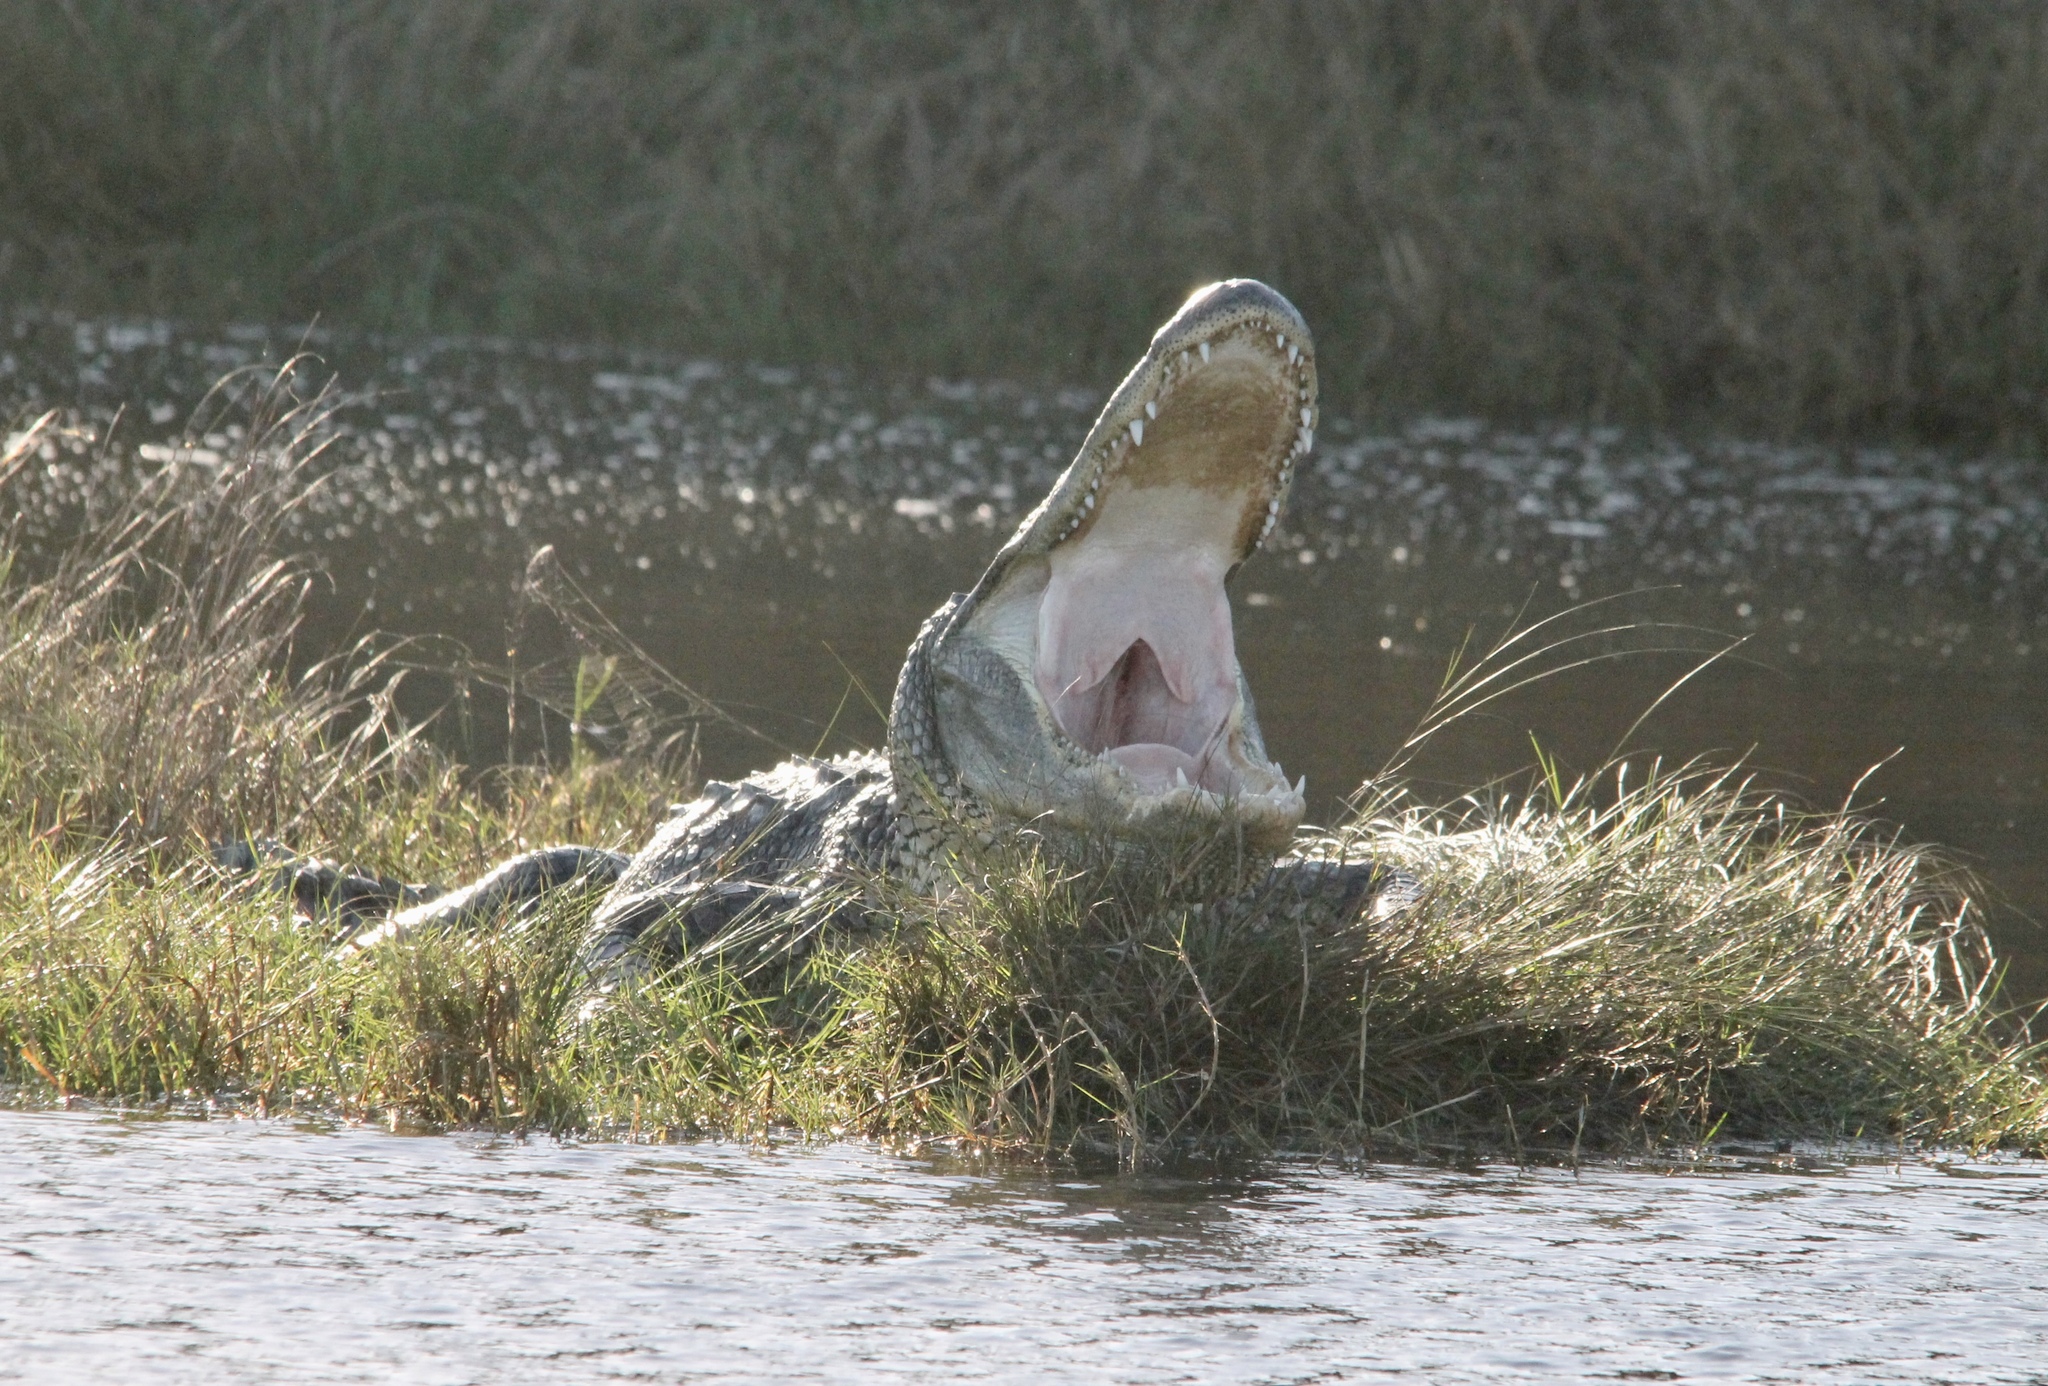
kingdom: Animalia
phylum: Chordata
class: Crocodylia
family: Alligatoridae
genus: Alligator
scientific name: Alligator mississippiensis
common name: American alligator
